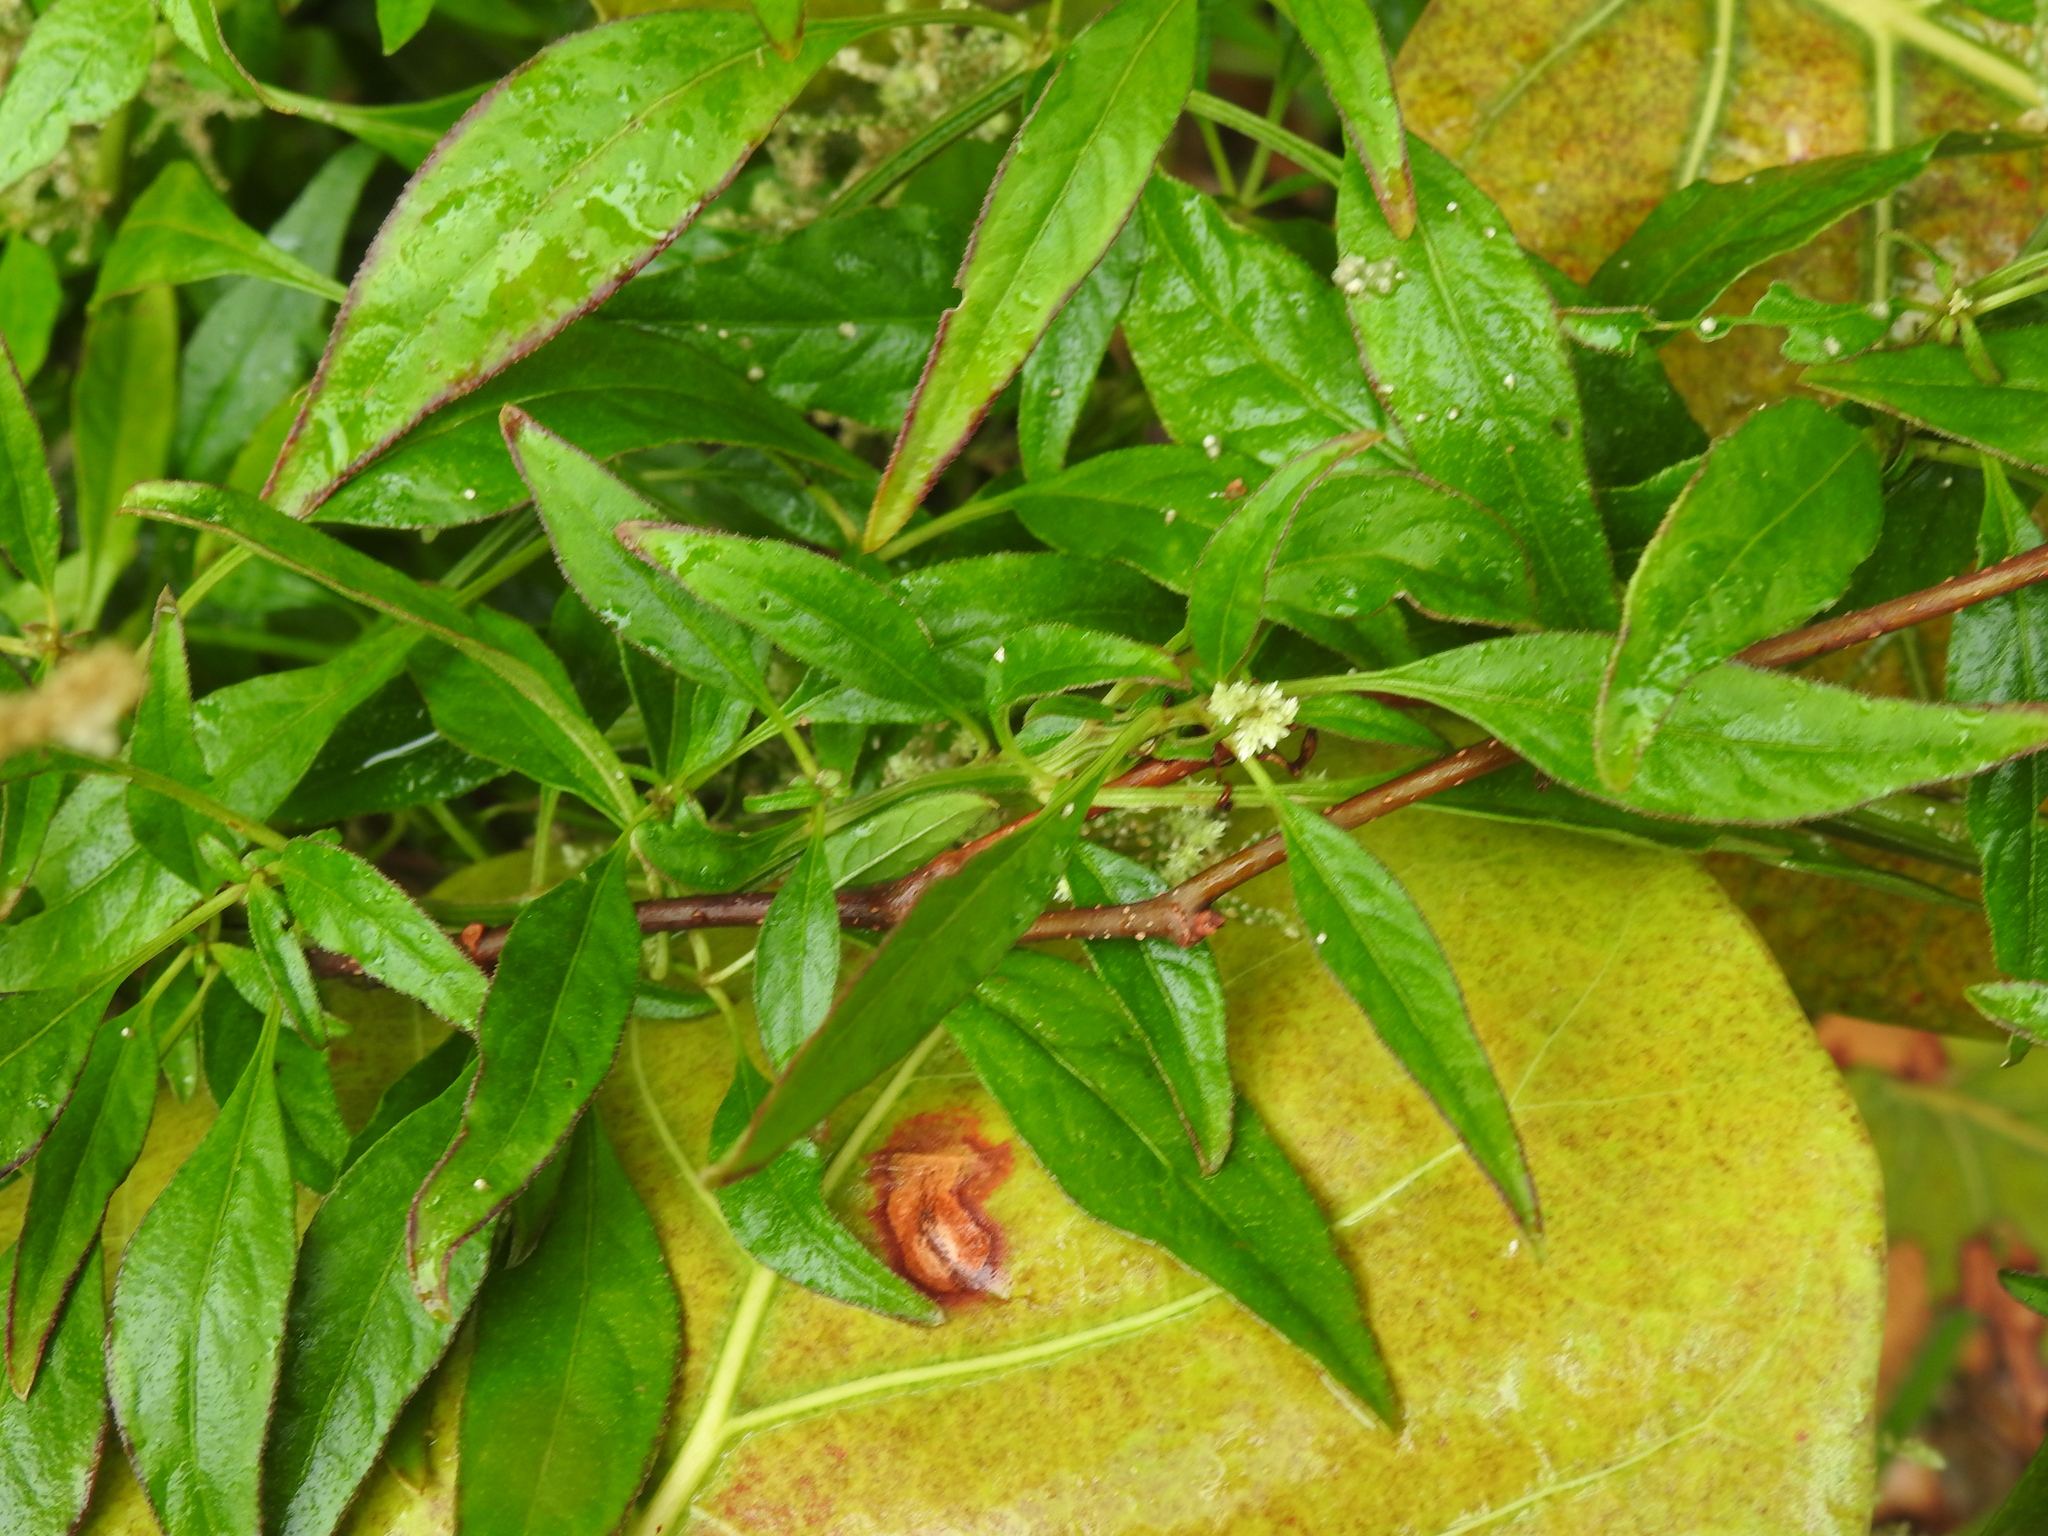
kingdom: Plantae
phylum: Tracheophyta
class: Magnoliopsida
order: Caryophyllales
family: Amaranthaceae
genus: Alternanthera
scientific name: Alternanthera flavescens
